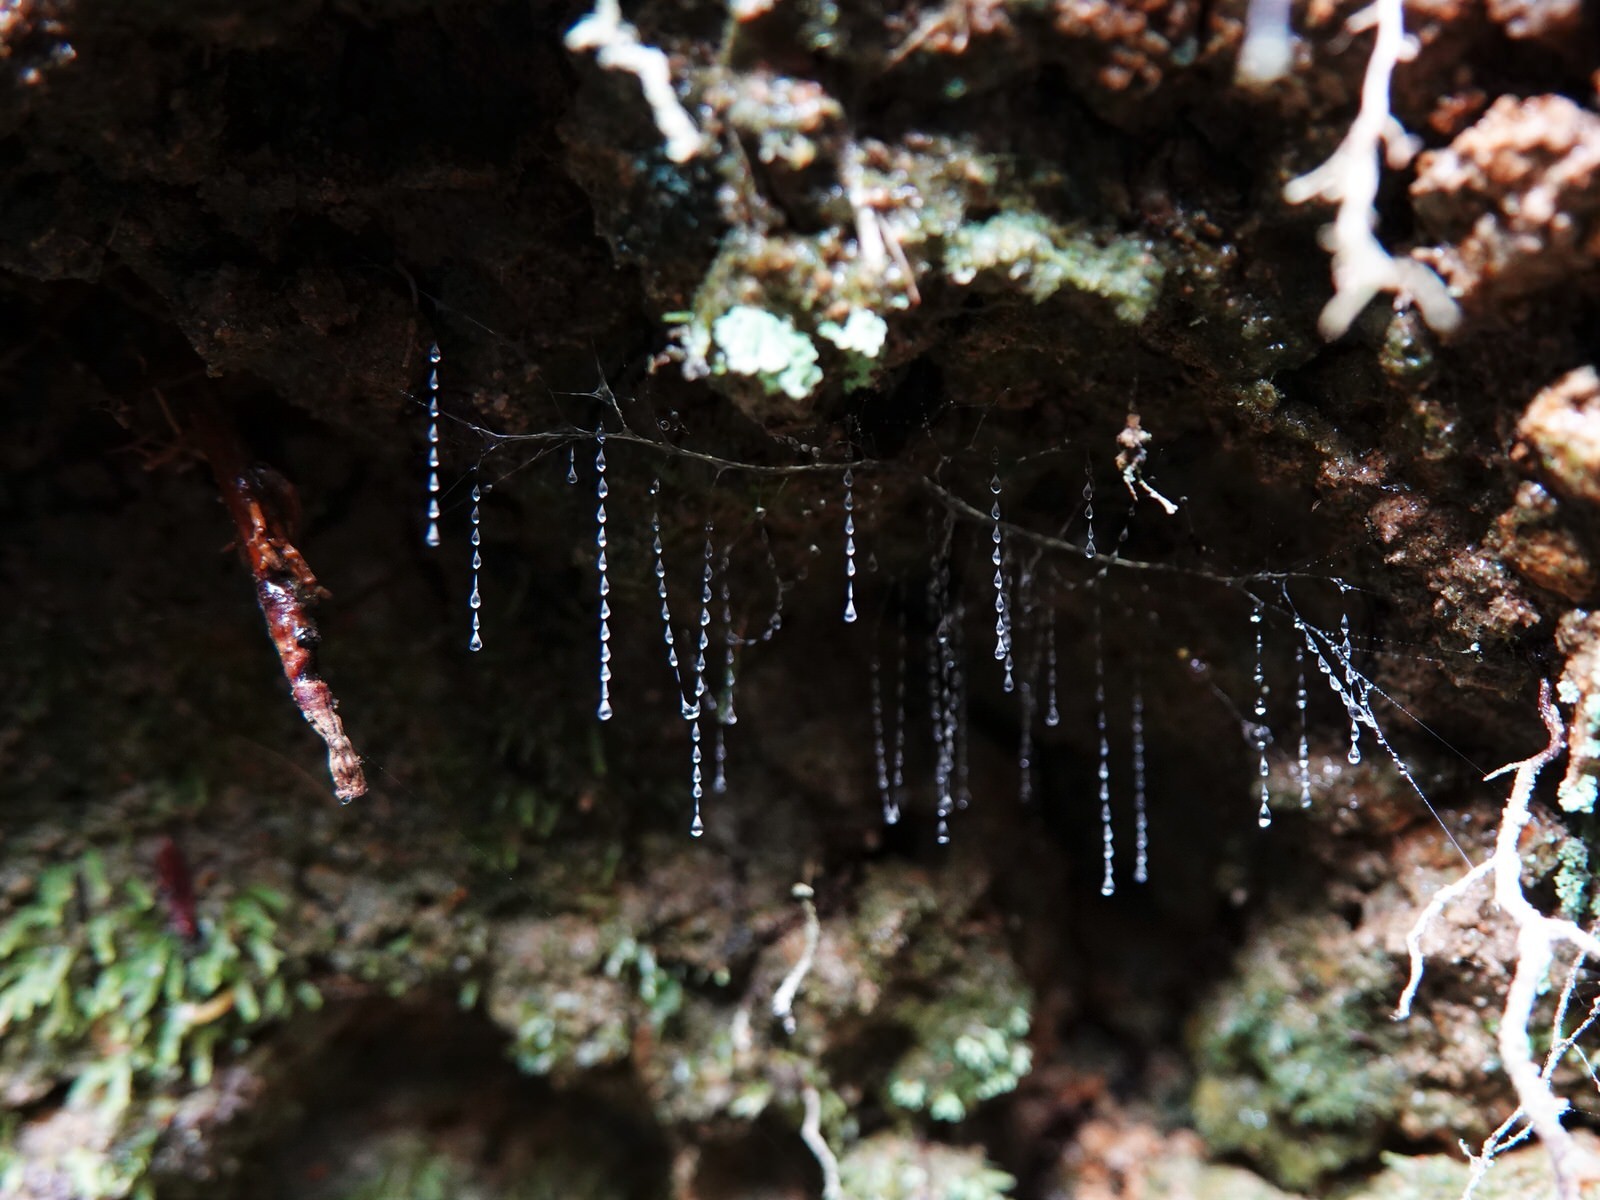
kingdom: Animalia
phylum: Arthropoda
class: Insecta
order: Diptera
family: Keroplatidae
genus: Arachnocampa
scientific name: Arachnocampa luminosa
